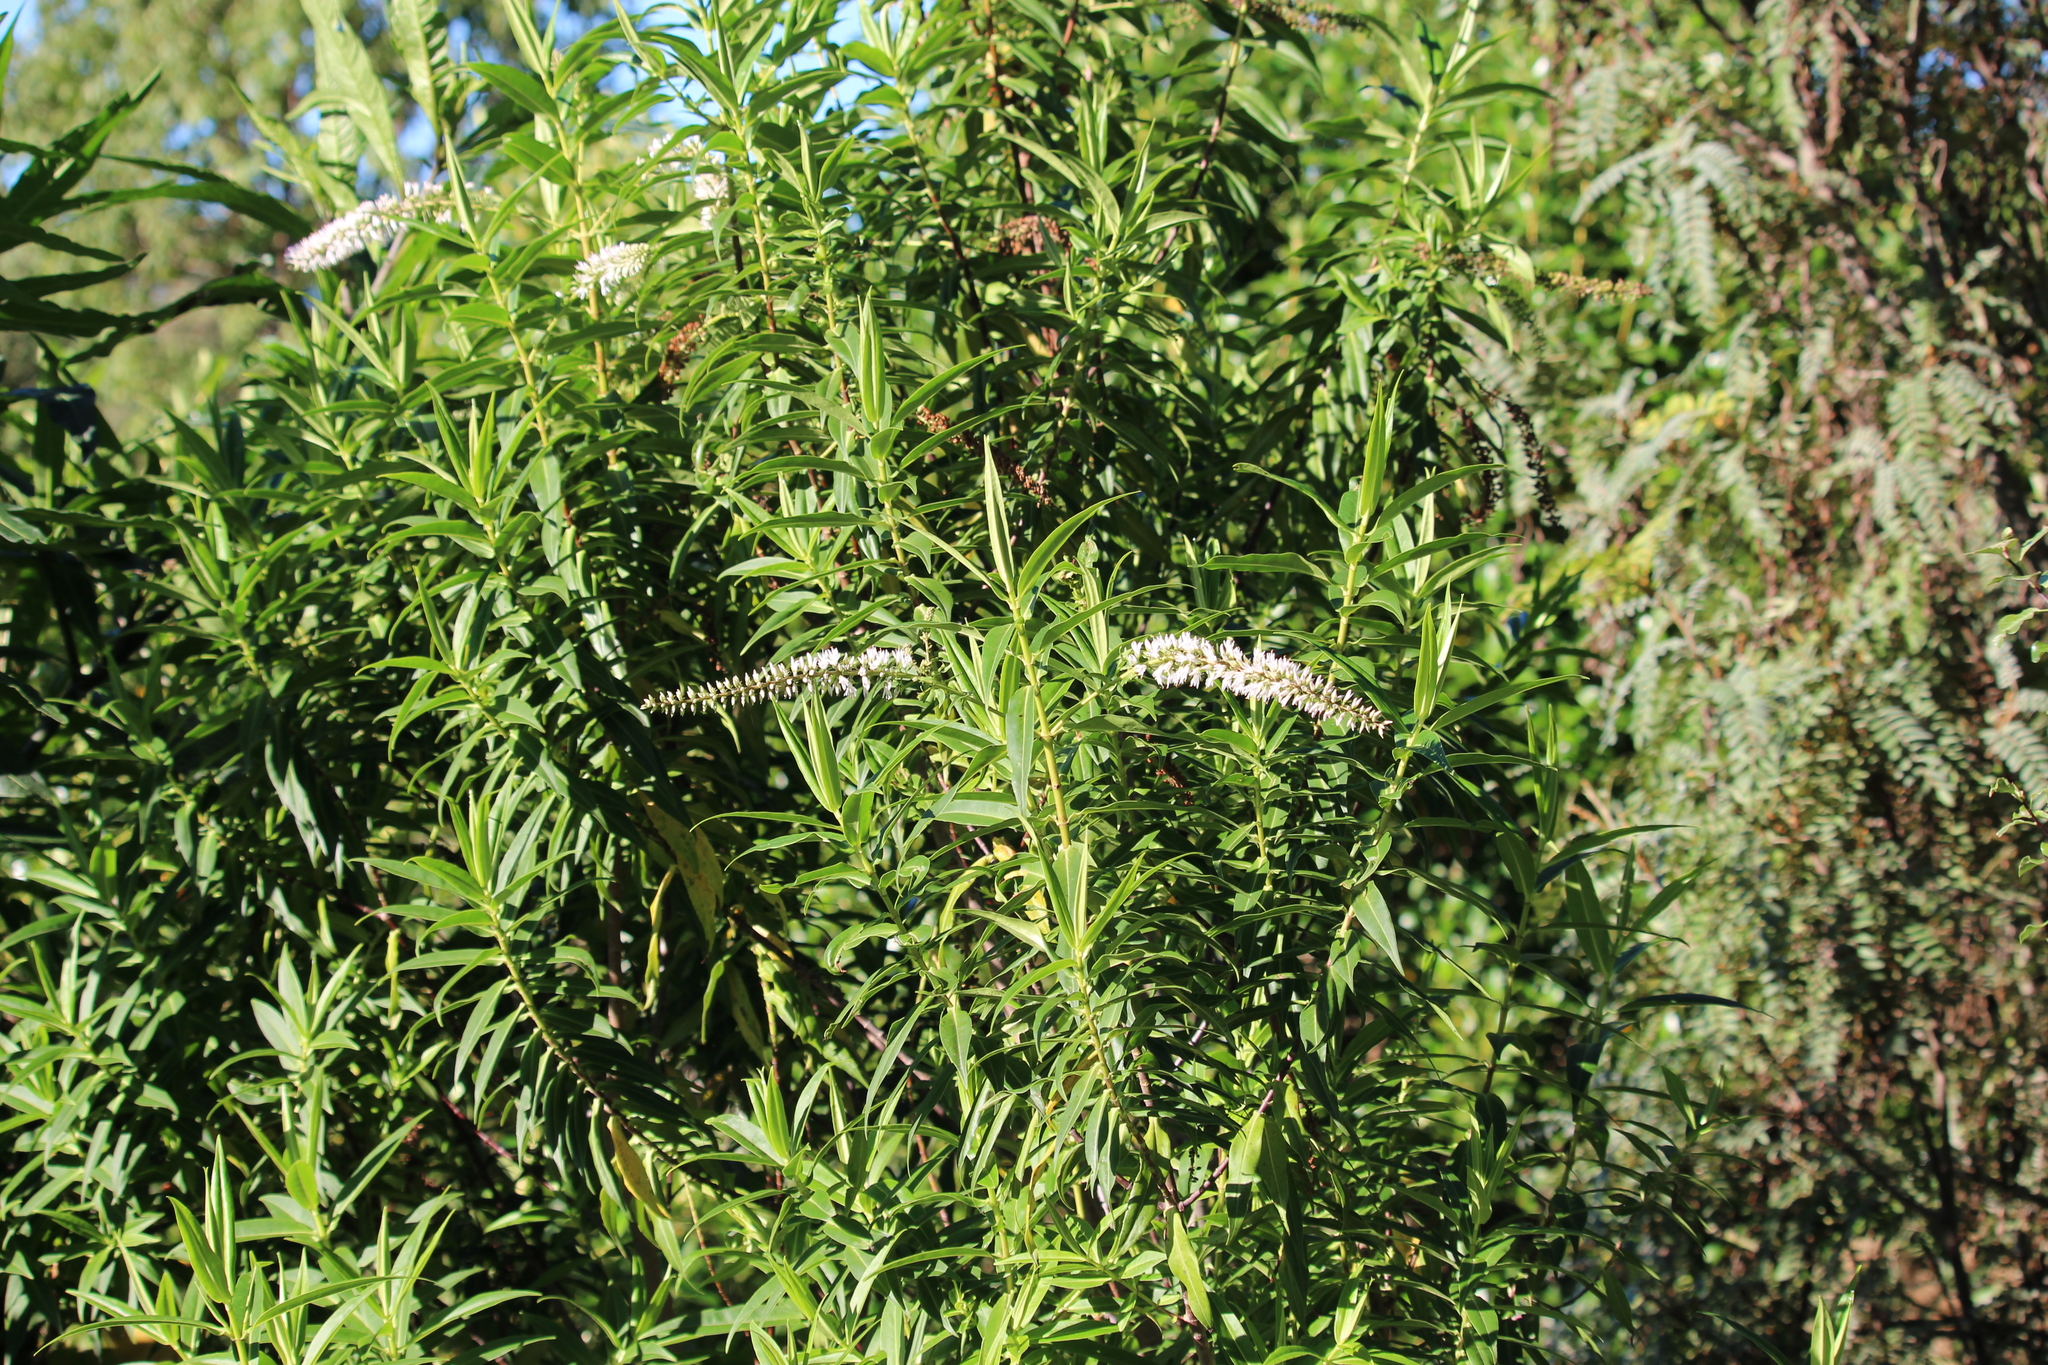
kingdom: Plantae
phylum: Tracheophyta
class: Magnoliopsida
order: Lamiales
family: Plantaginaceae
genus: Veronica
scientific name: Veronica salicifolia
